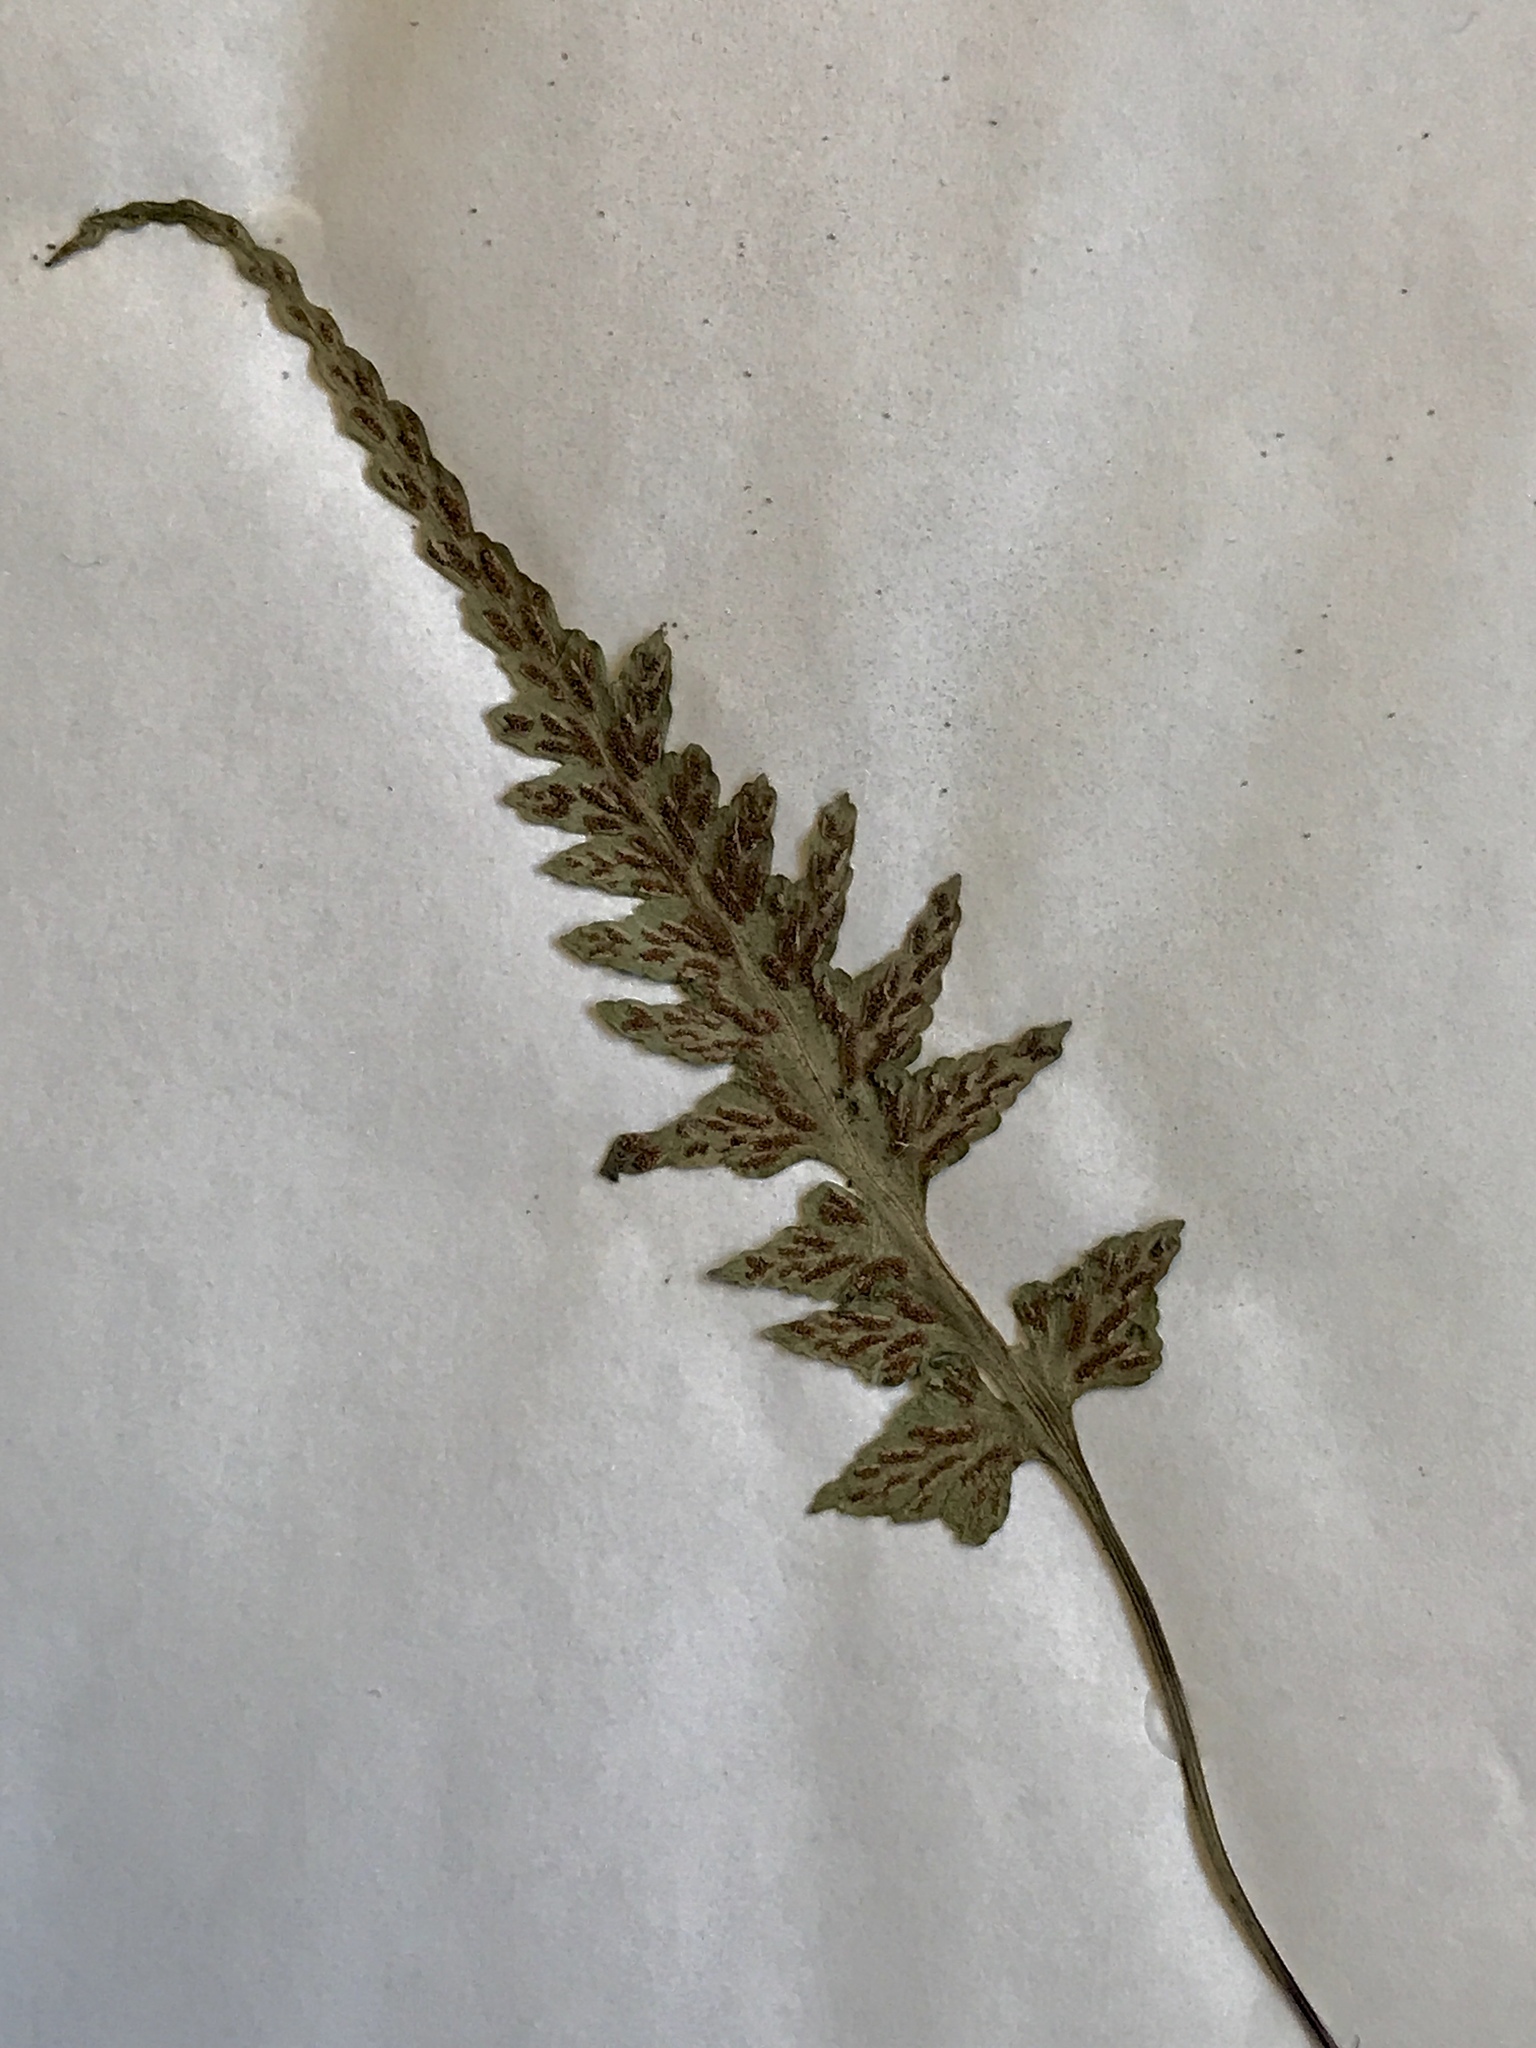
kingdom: Plantae
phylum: Tracheophyta
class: Polypodiopsida
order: Polypodiales
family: Aspleniaceae
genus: Asplenium
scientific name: Asplenium pinnatifidum
